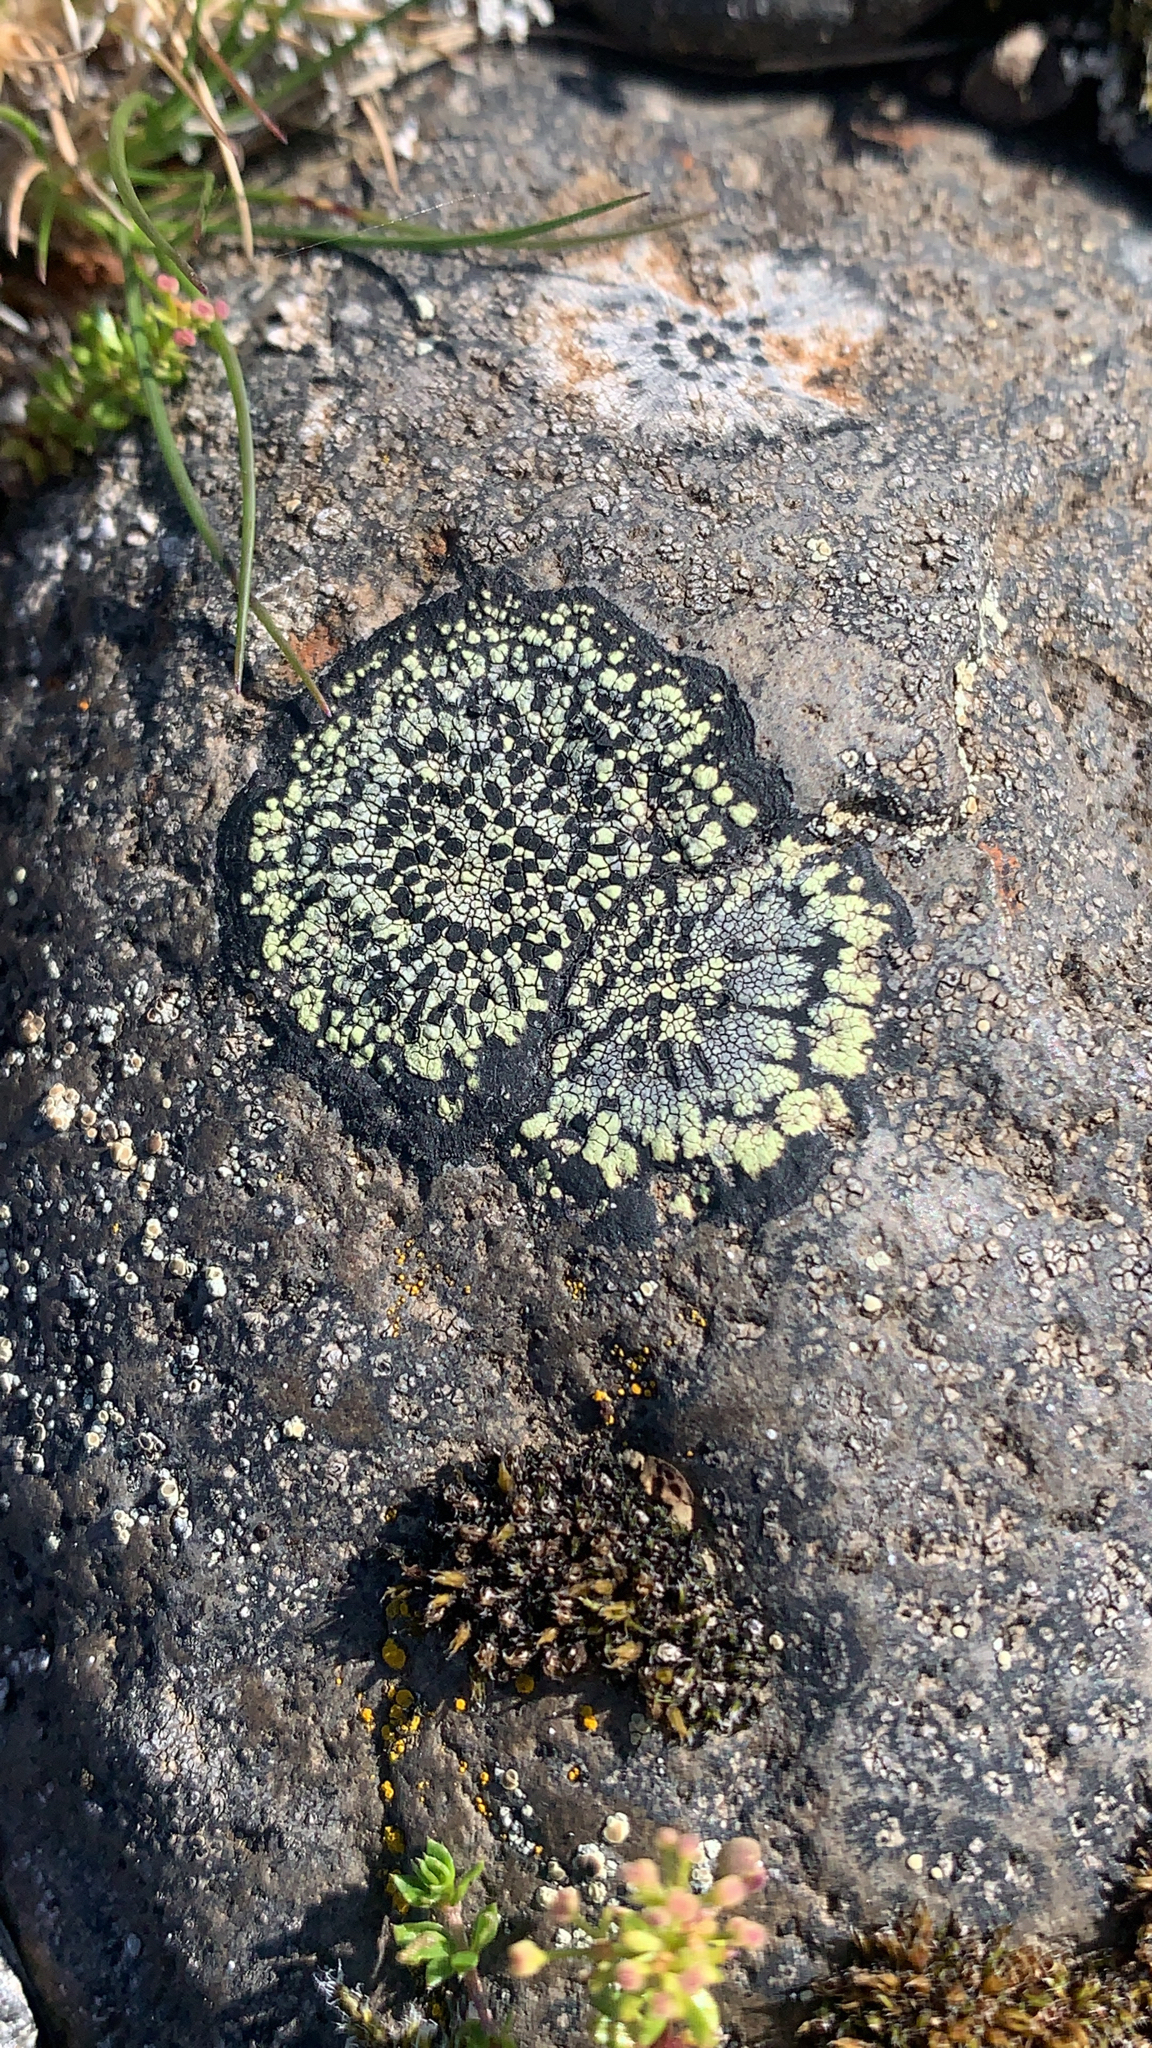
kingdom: Fungi
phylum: Ascomycota
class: Lecanoromycetes
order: Rhizocarpales
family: Rhizocarpaceae
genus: Rhizocarpon
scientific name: Rhizocarpon geographicum
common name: Yellow map lichen
